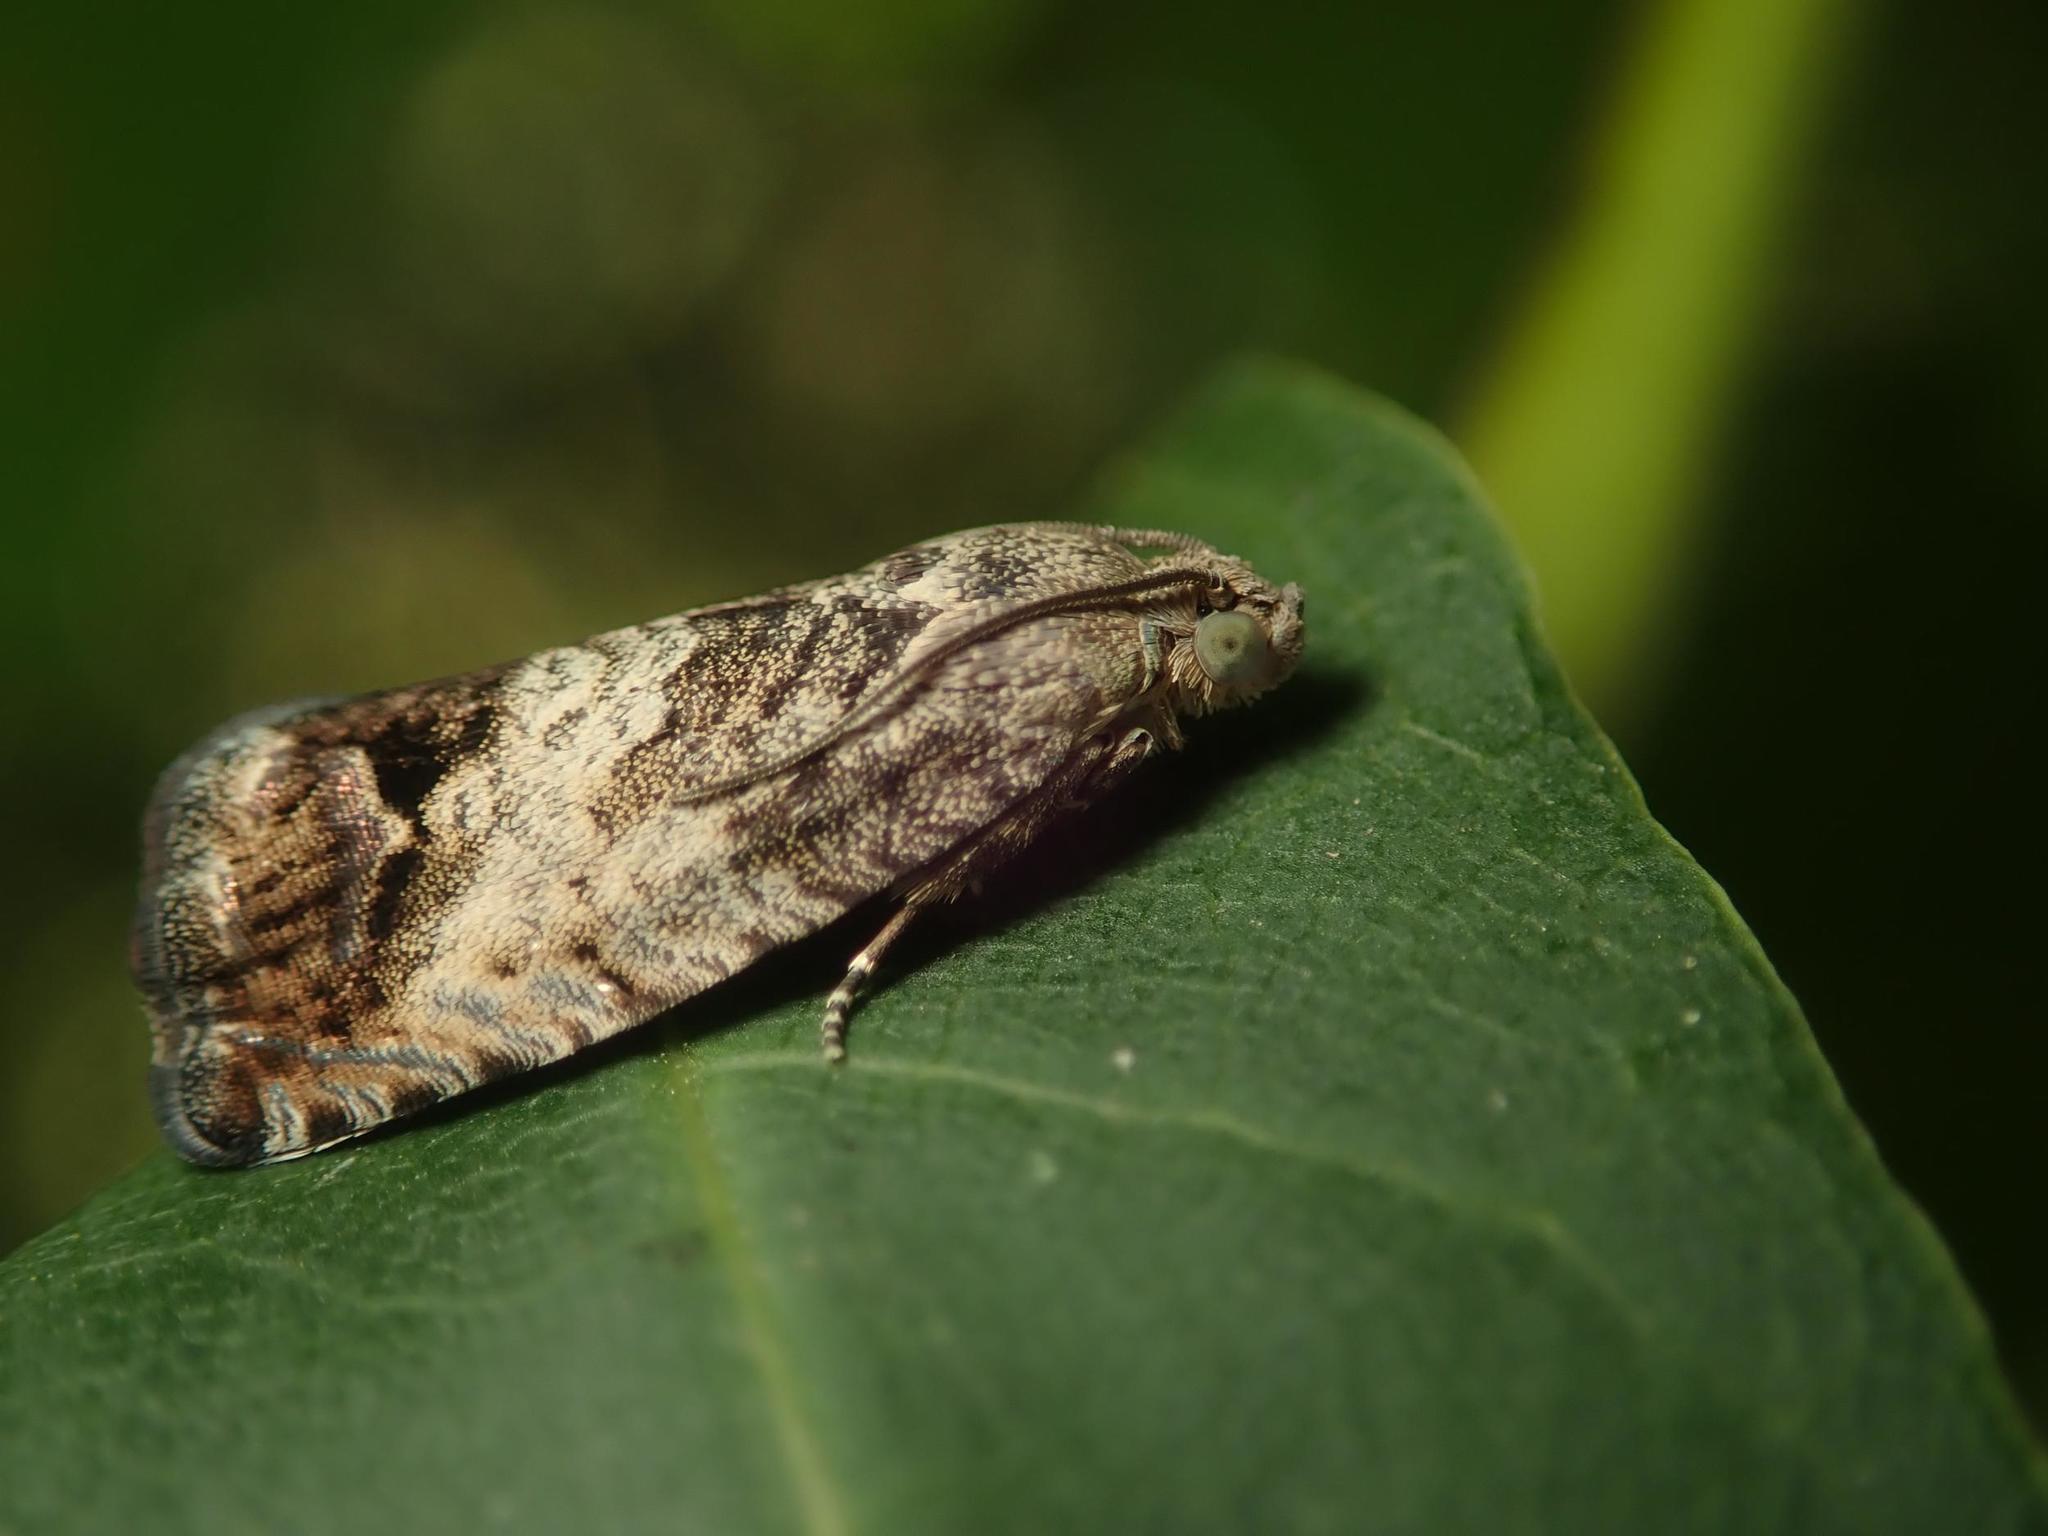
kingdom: Animalia
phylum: Arthropoda
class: Insecta
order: Lepidoptera
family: Tortricidae
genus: Cydia
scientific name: Cydia splendana
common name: De: kastanienwickler, eichenwickler es: oruga de la castaña fr: carpocapse des châtaignes it: cidia o tortrice tardiva delle castagne pt: bichado das castanhas gb: acorn moth, chestnut fruit tortrix
